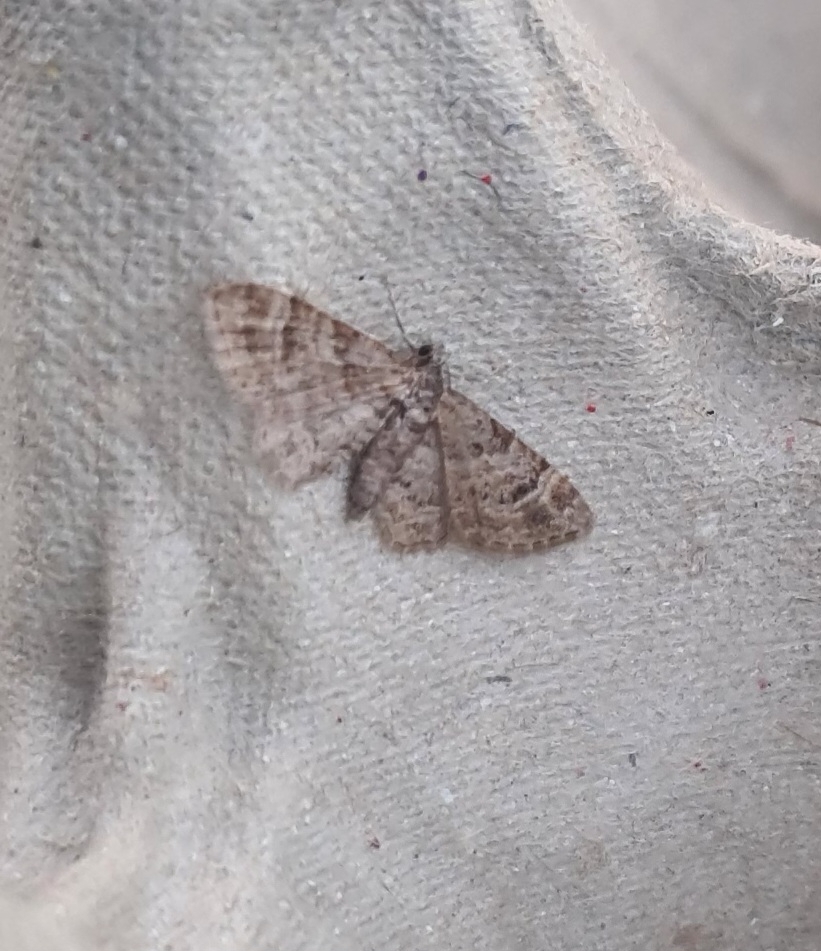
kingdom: Animalia
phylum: Arthropoda
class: Insecta
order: Lepidoptera
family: Geometridae
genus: Gymnoscelis
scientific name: Gymnoscelis rufifasciata
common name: Double-striped pug
